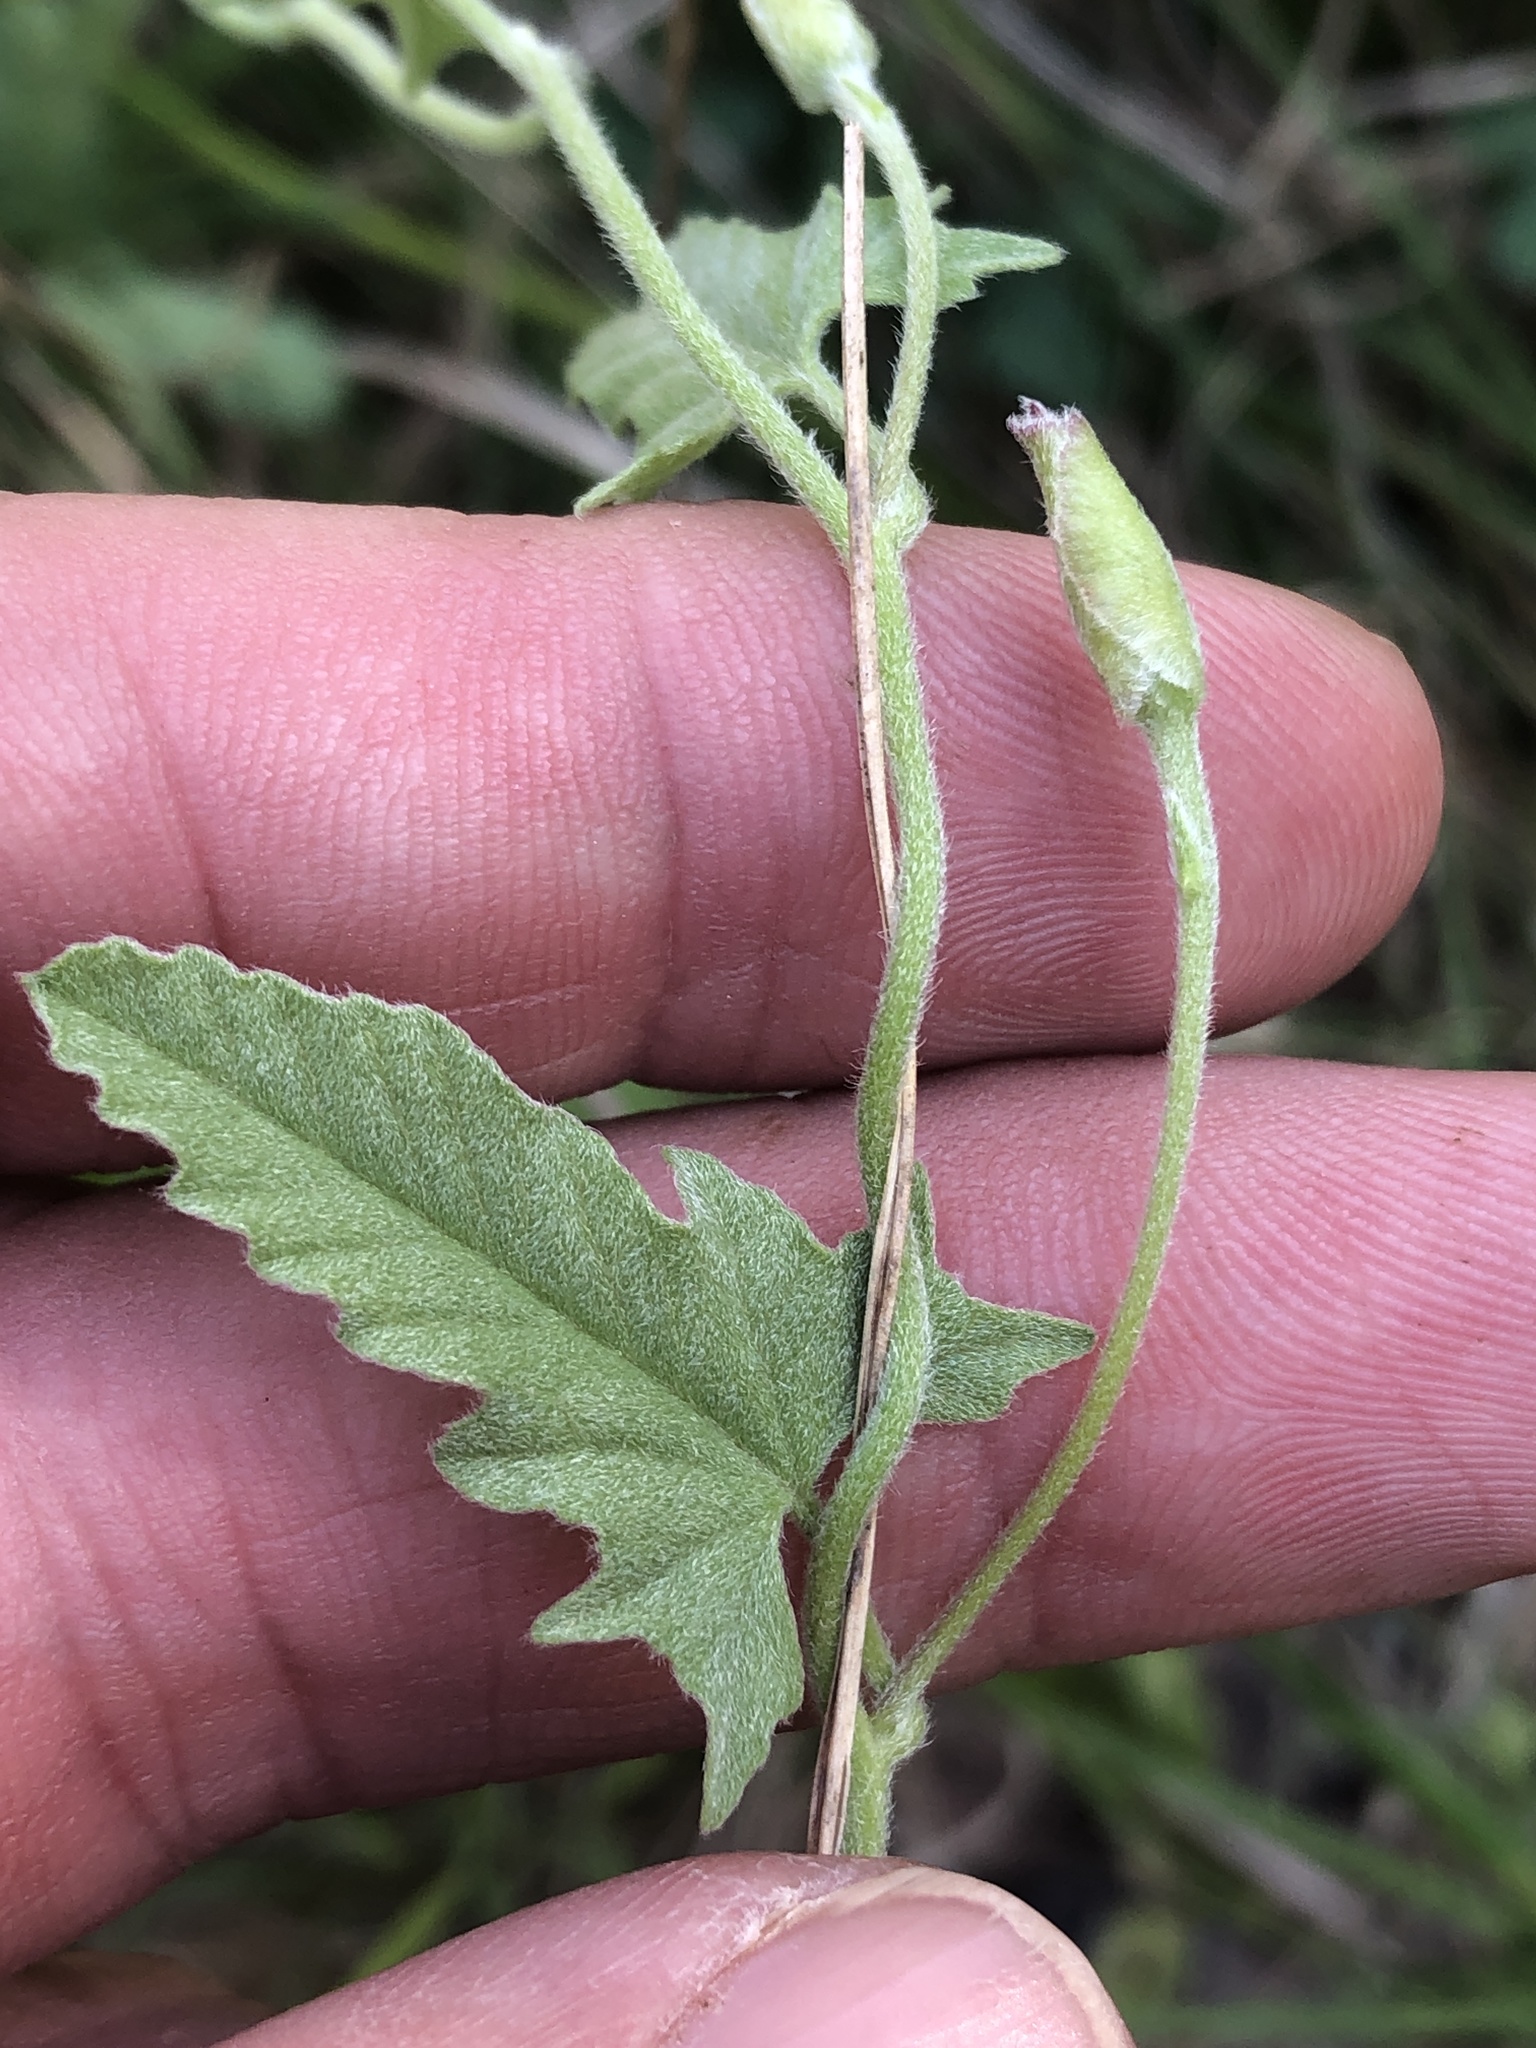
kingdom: Plantae
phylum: Tracheophyta
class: Magnoliopsida
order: Solanales
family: Convolvulaceae
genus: Convolvulus
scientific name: Convolvulus equitans
